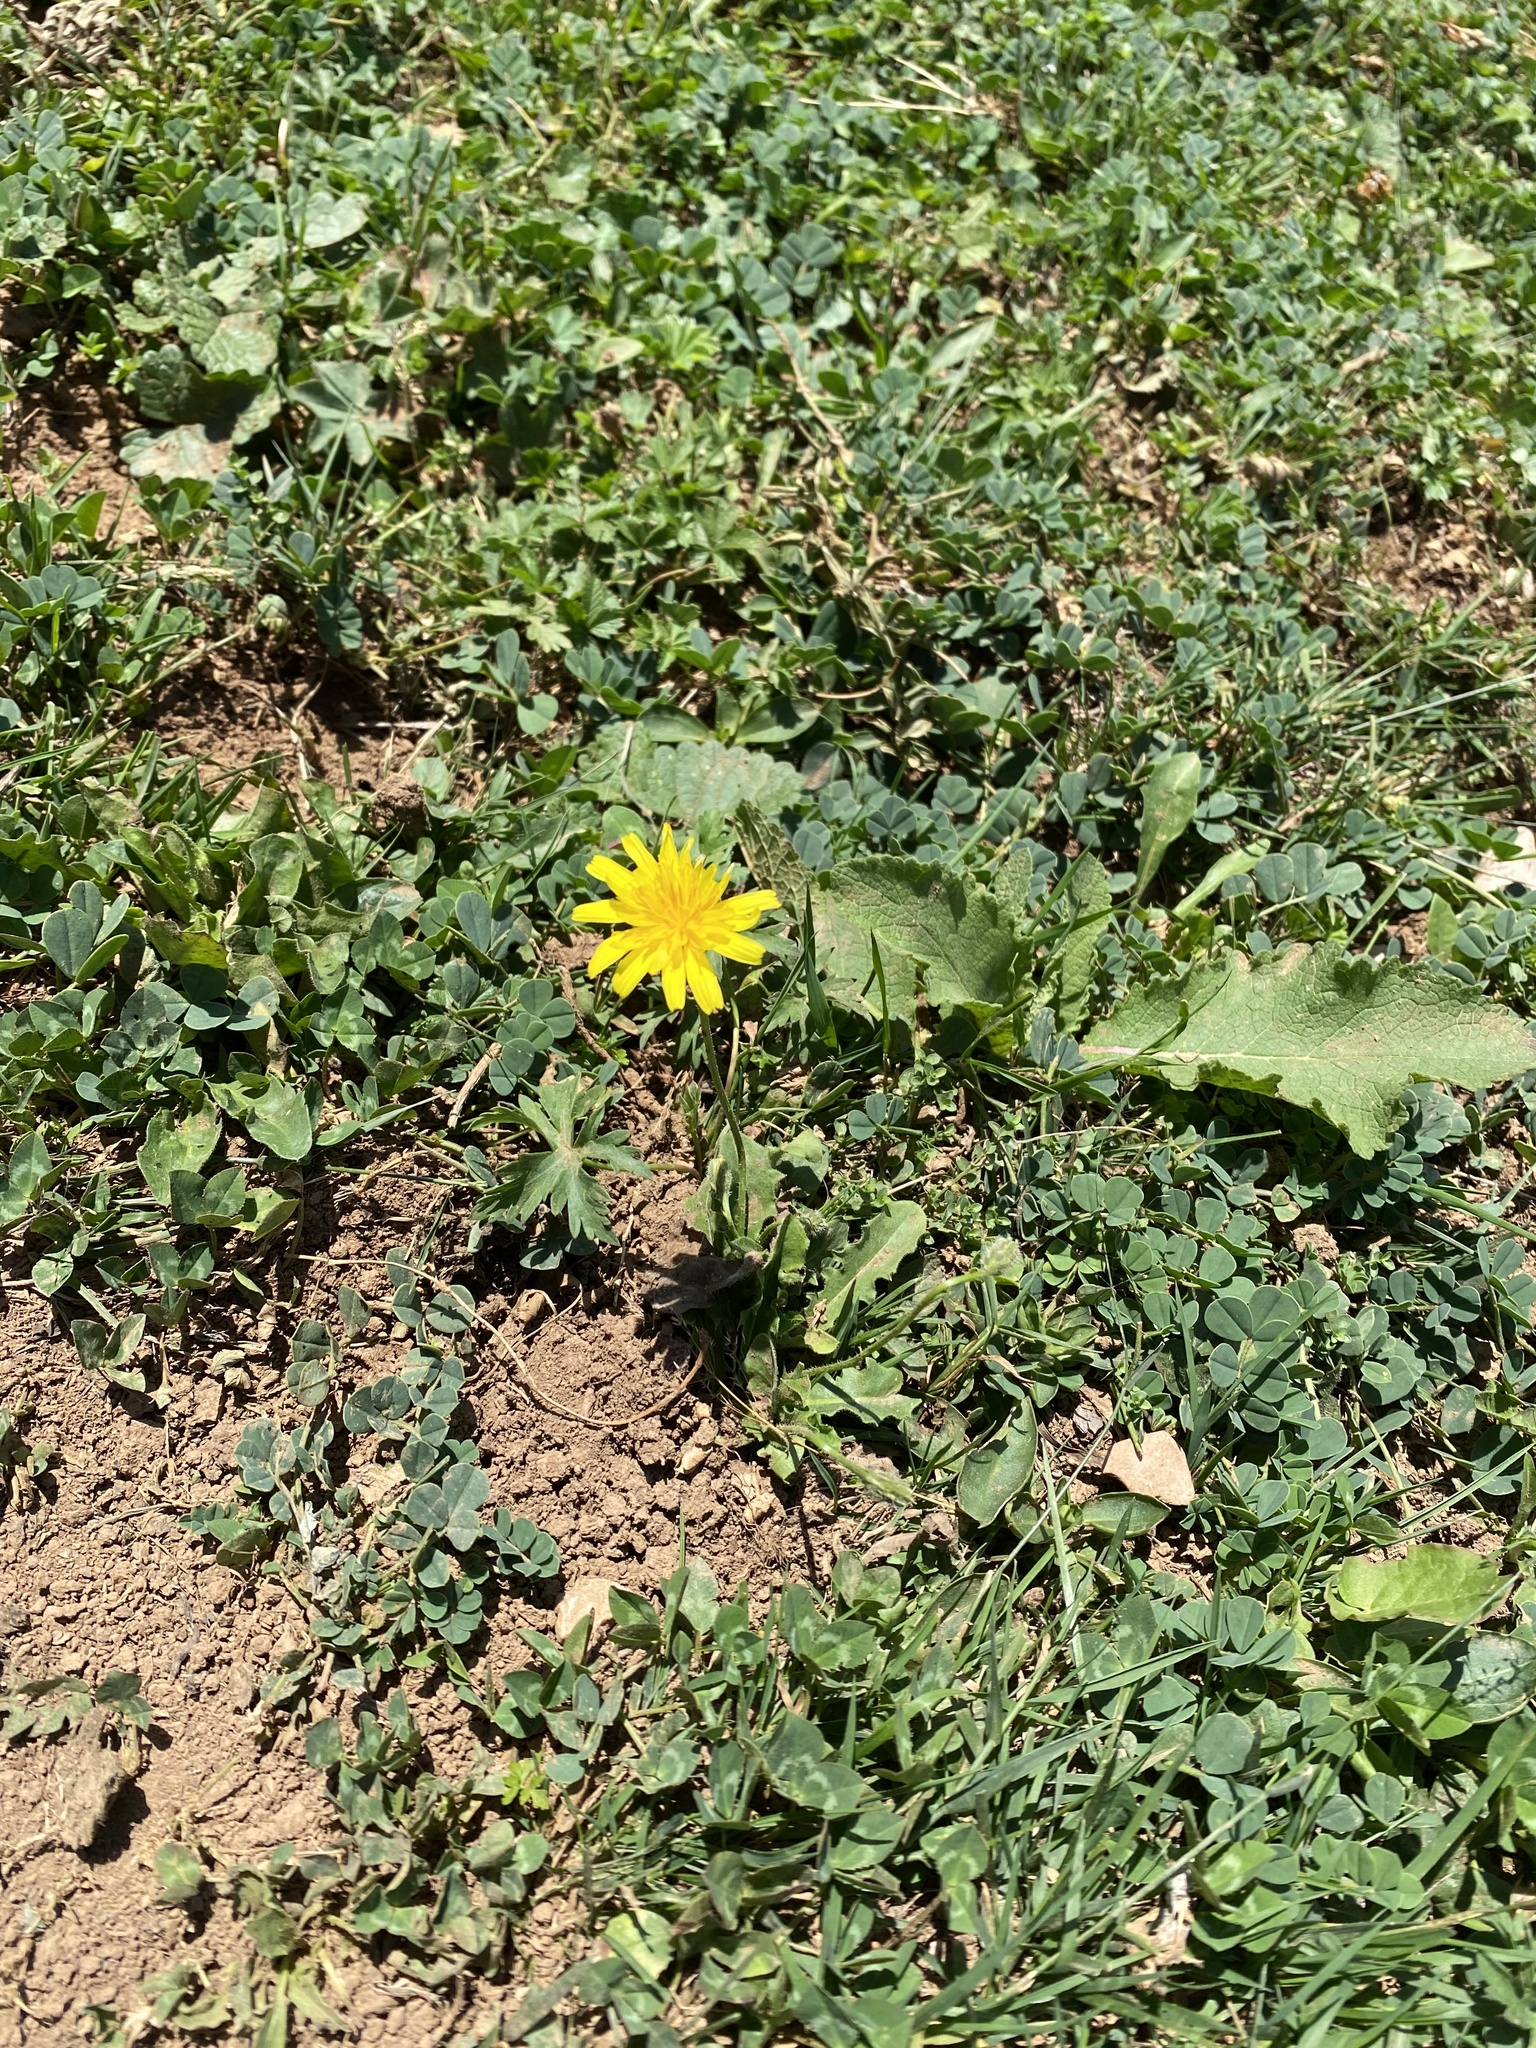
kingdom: Plantae
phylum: Tracheophyta
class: Magnoliopsida
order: Asterales
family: Asteraceae
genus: Leontodon
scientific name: Leontodon
